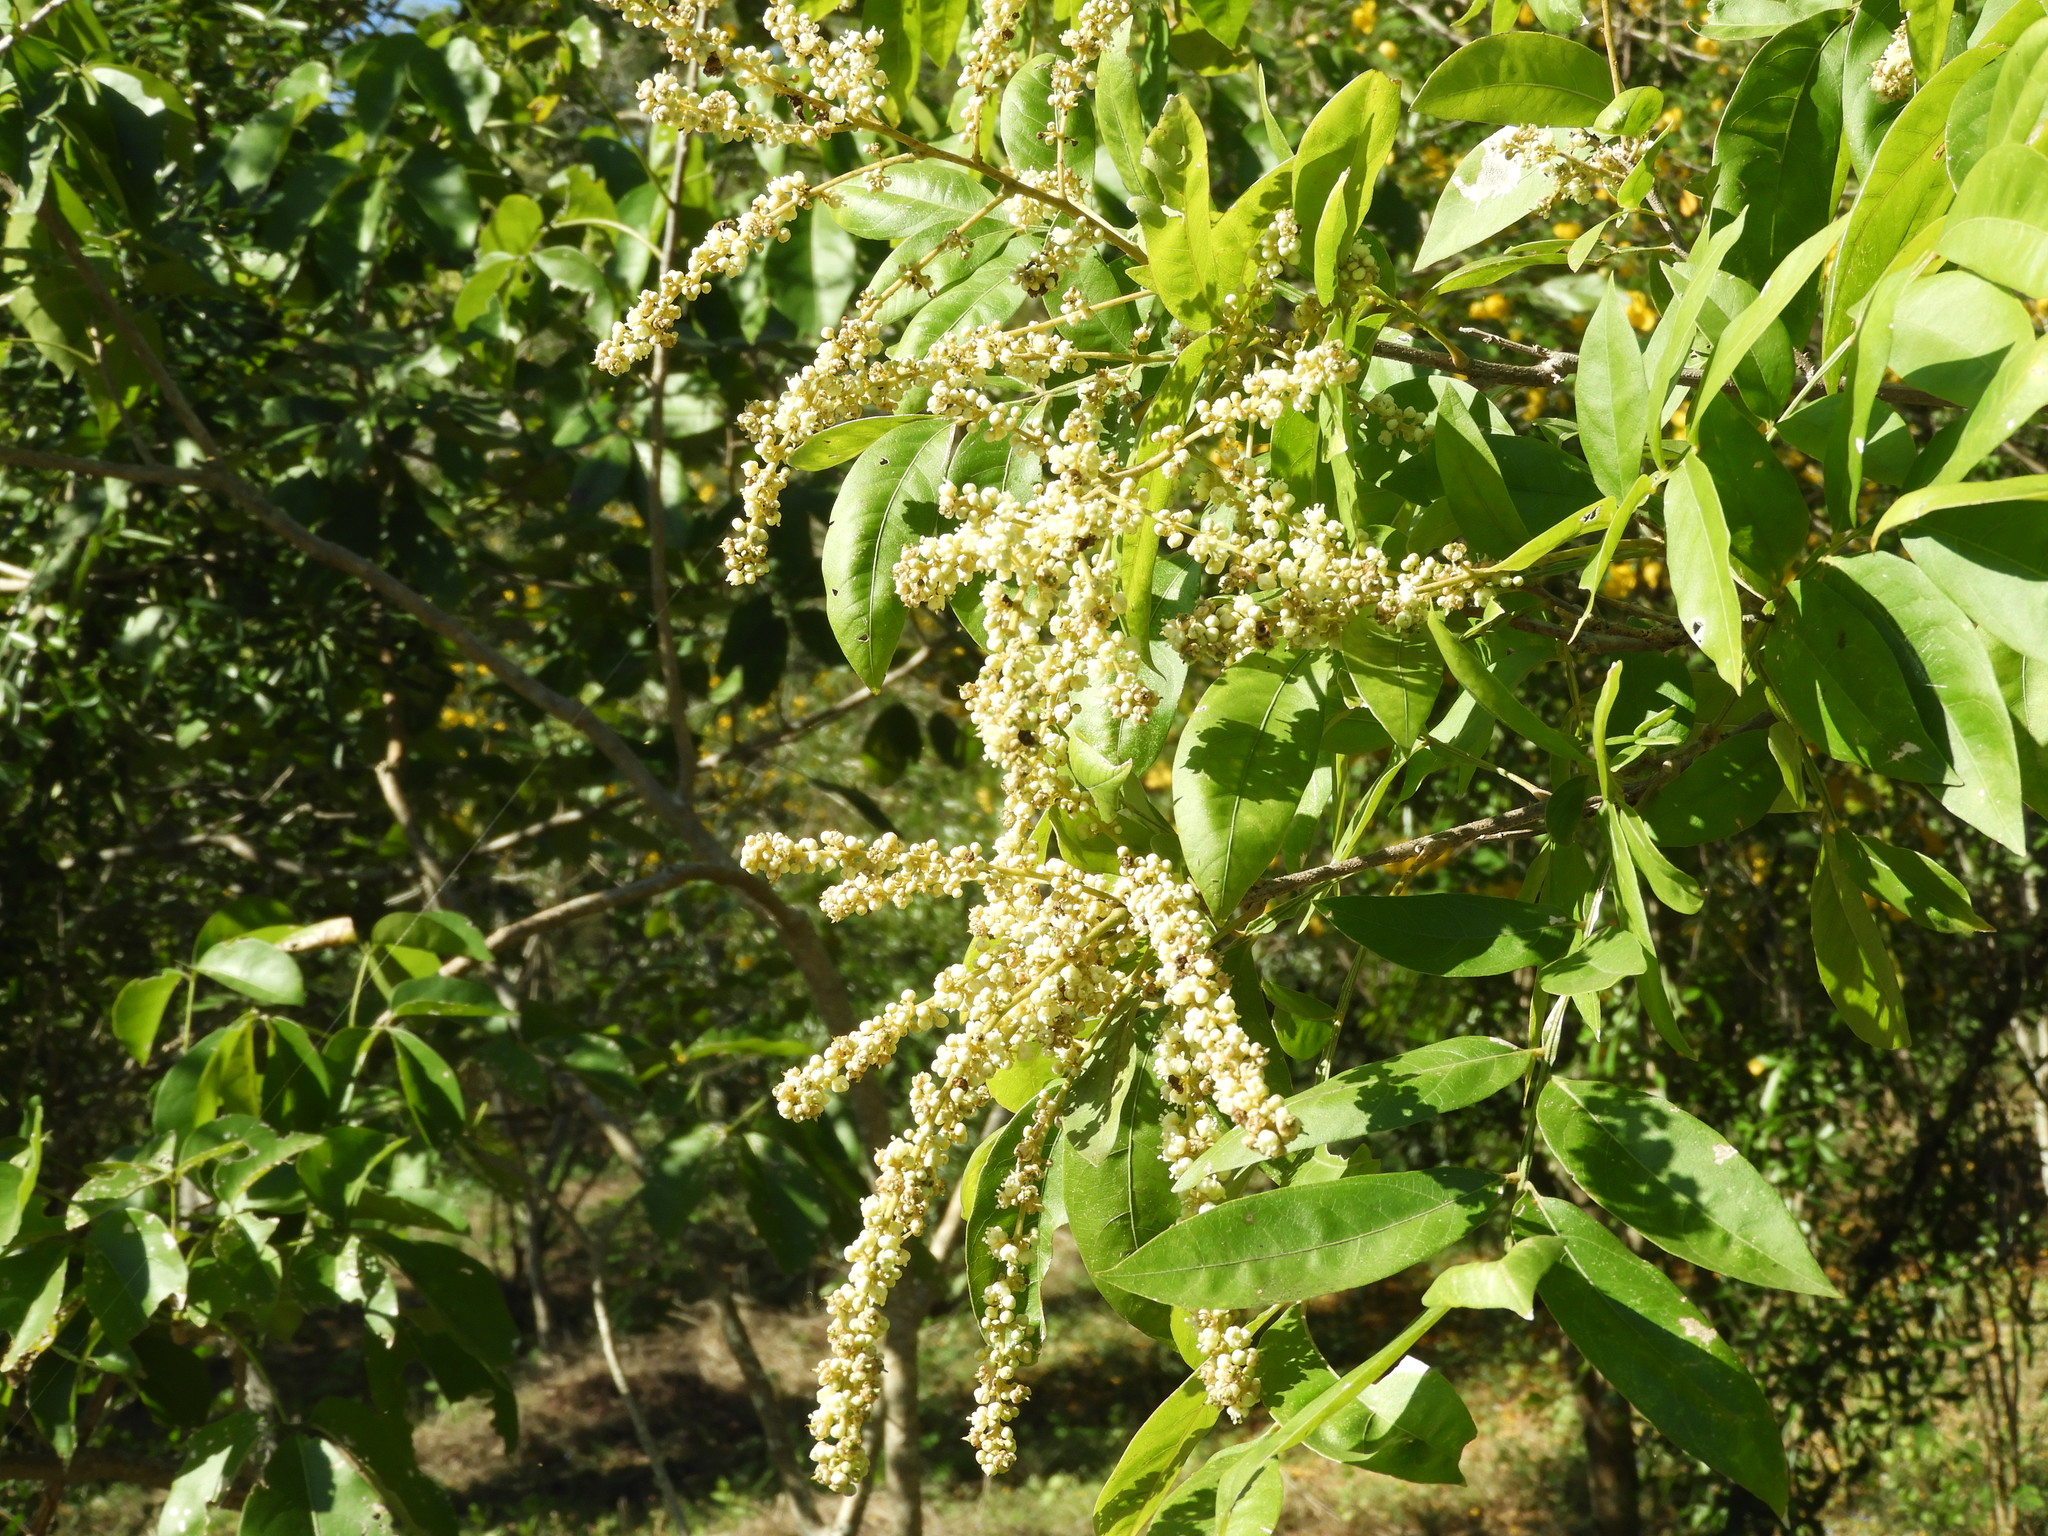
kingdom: Plantae
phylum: Tracheophyta
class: Magnoliopsida
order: Sapindales
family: Sapindaceae
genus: Sapindus
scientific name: Sapindus
